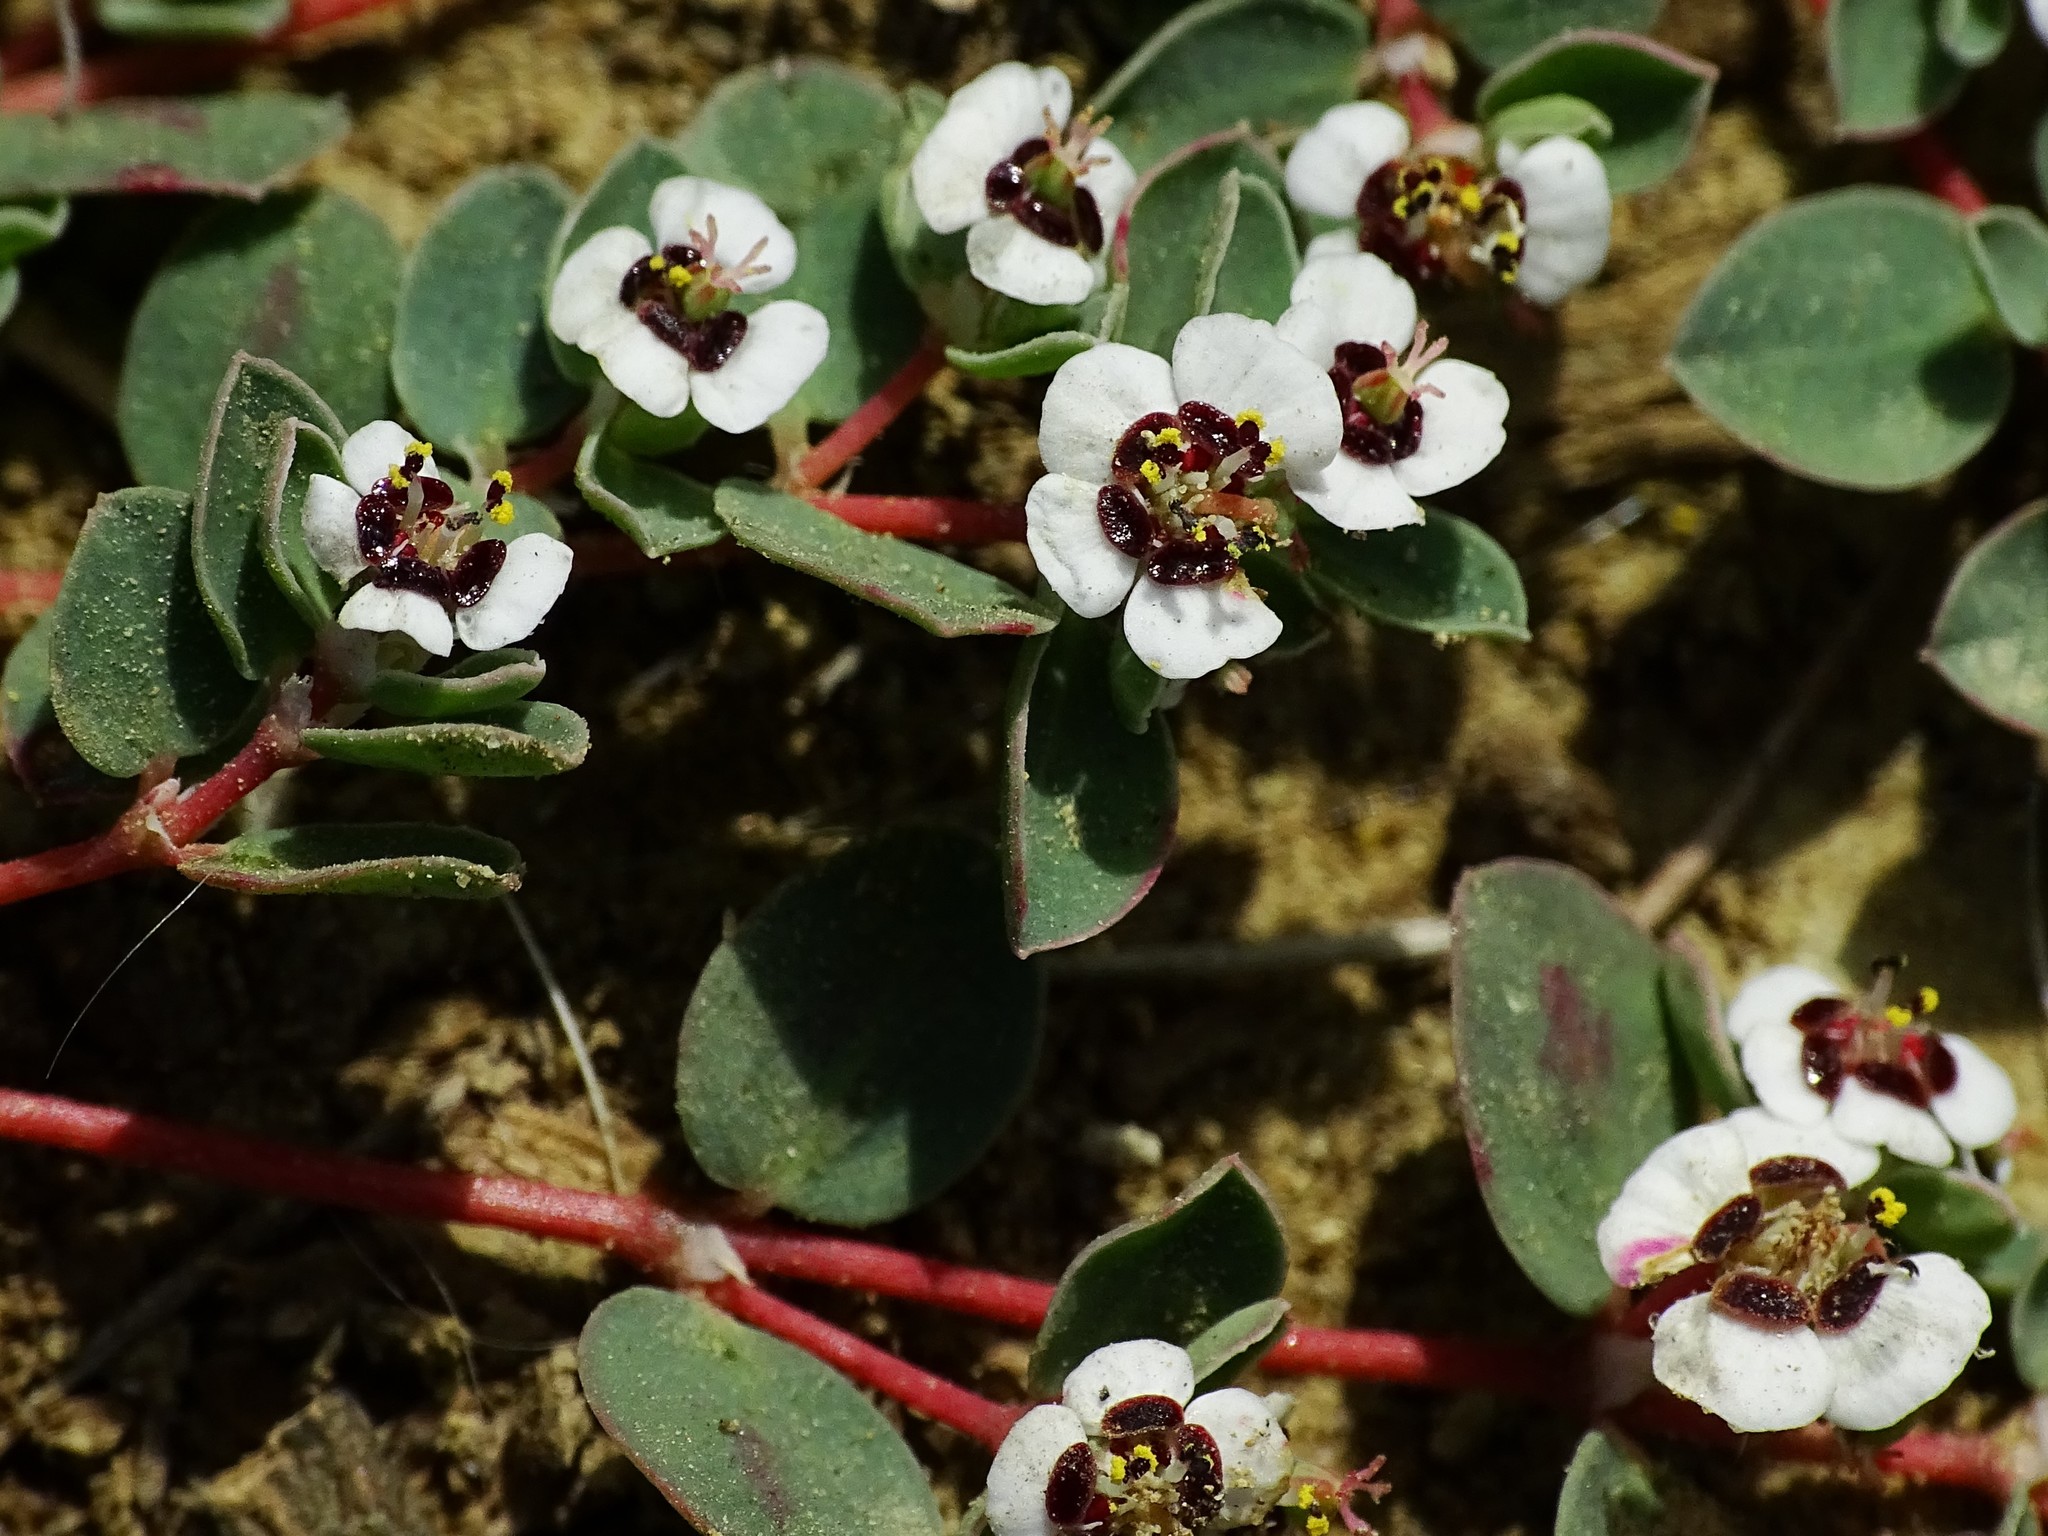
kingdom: Plantae
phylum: Tracheophyta
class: Magnoliopsida
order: Malpighiales
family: Euphorbiaceae
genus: Euphorbia
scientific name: Euphorbia albomarginata
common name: Whitemargin sandmat
